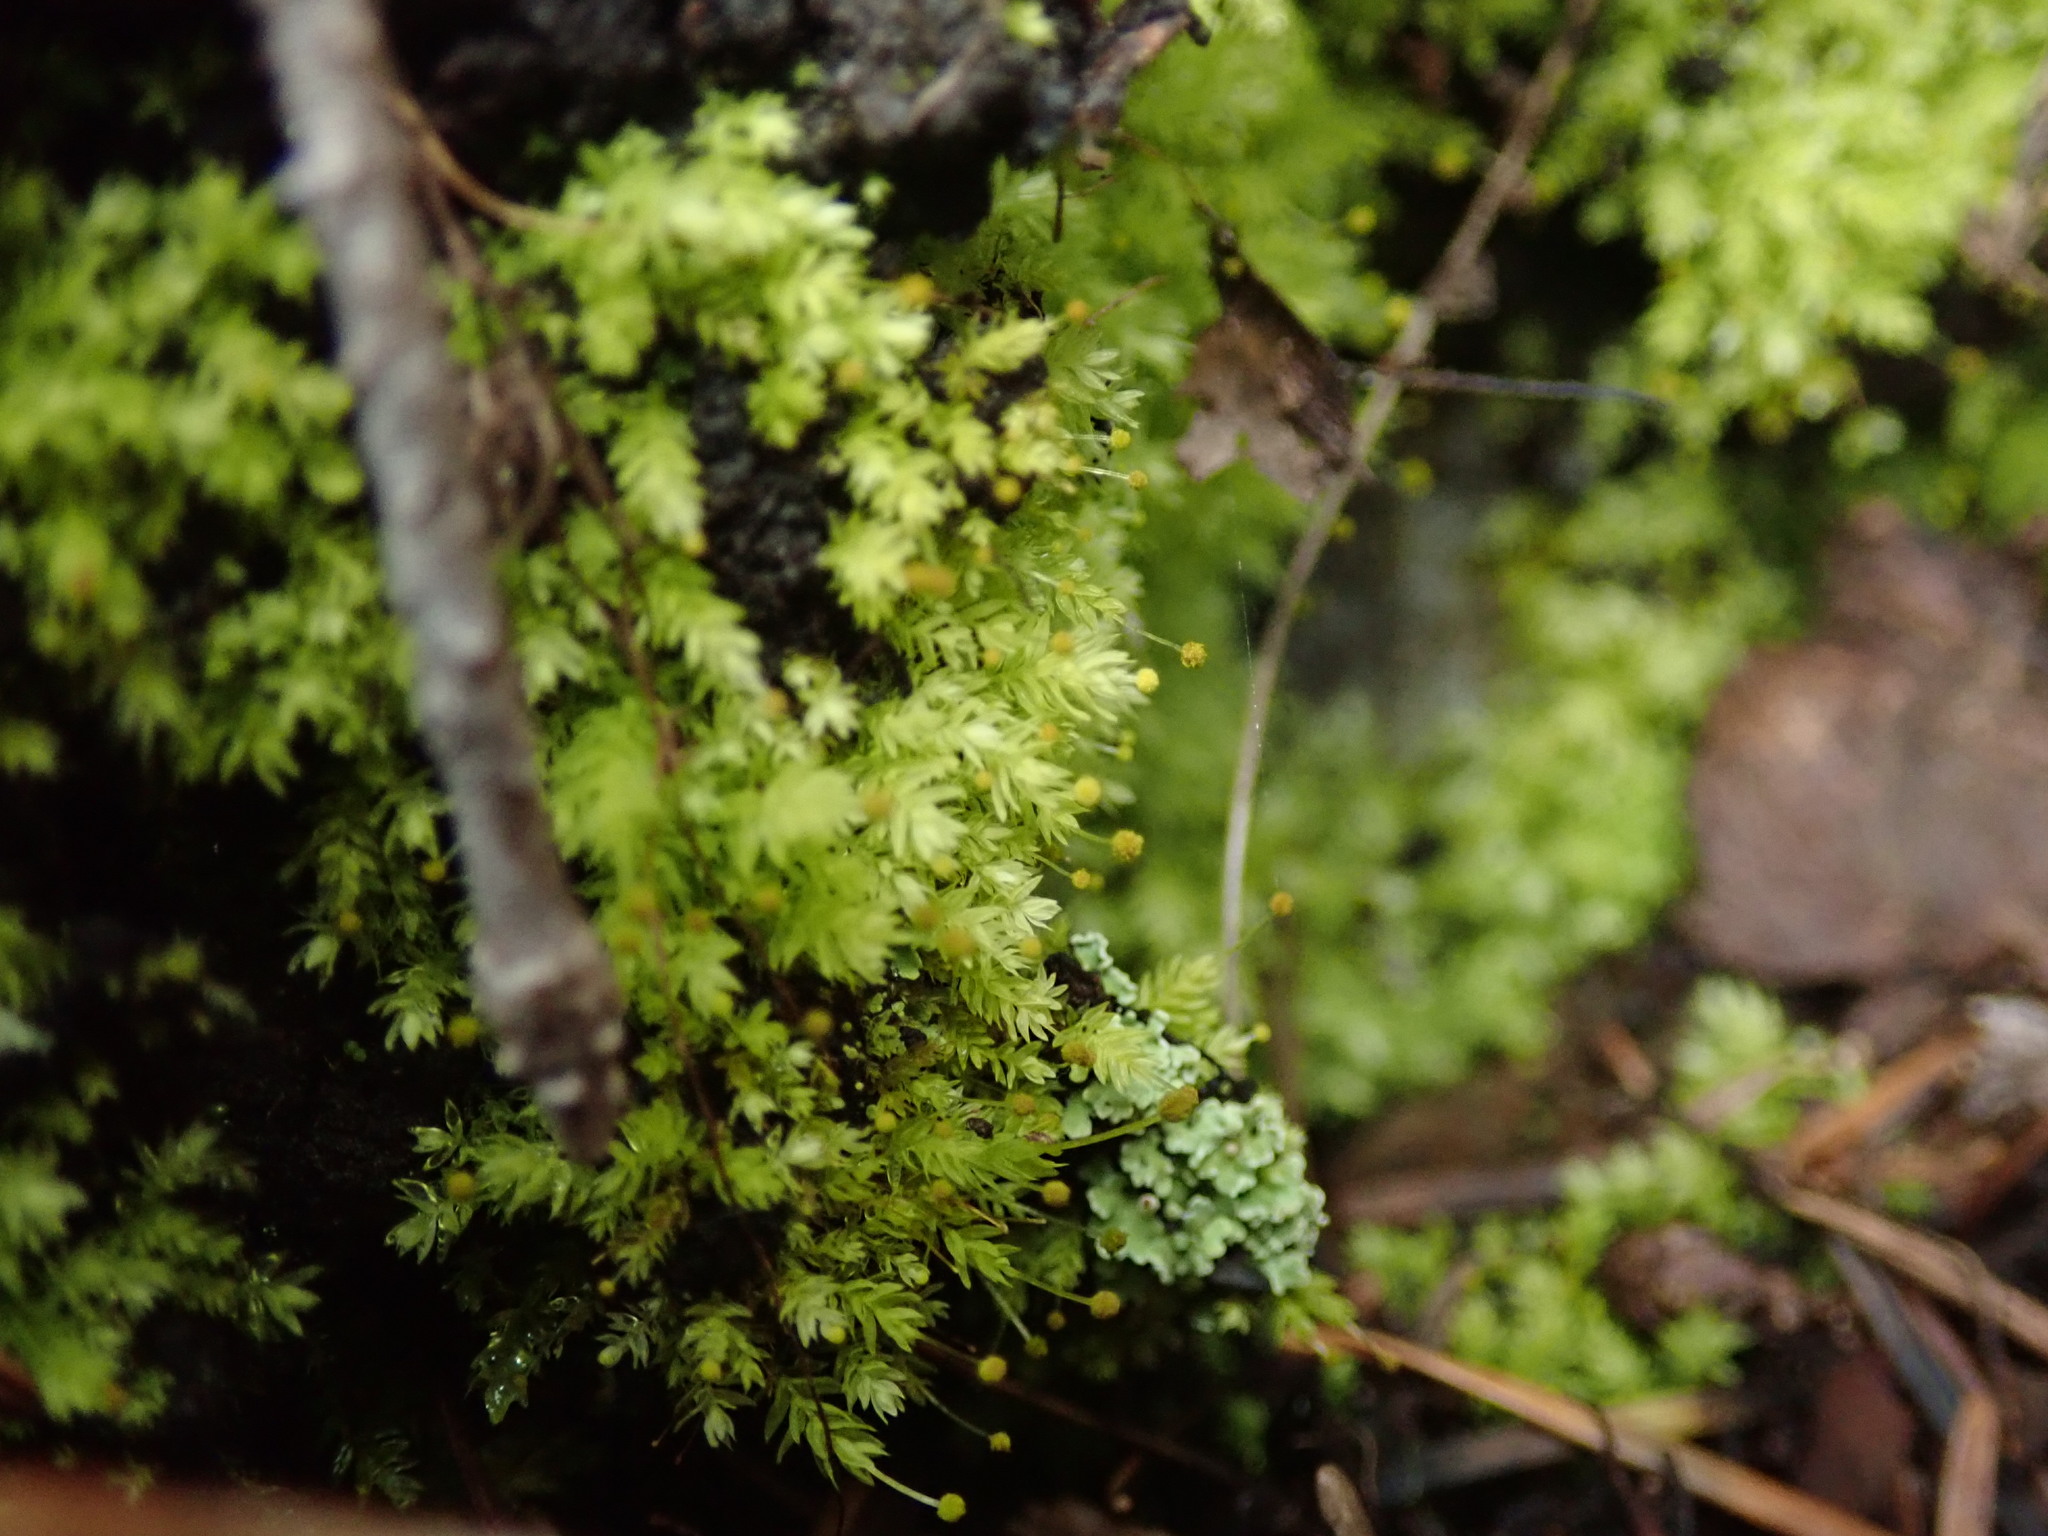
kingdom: Plantae
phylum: Bryophyta
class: Bryopsida
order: Aulacomniales
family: Aulacomniaceae
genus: Aulacomnium
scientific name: Aulacomnium androgynum
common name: Little groove moss
